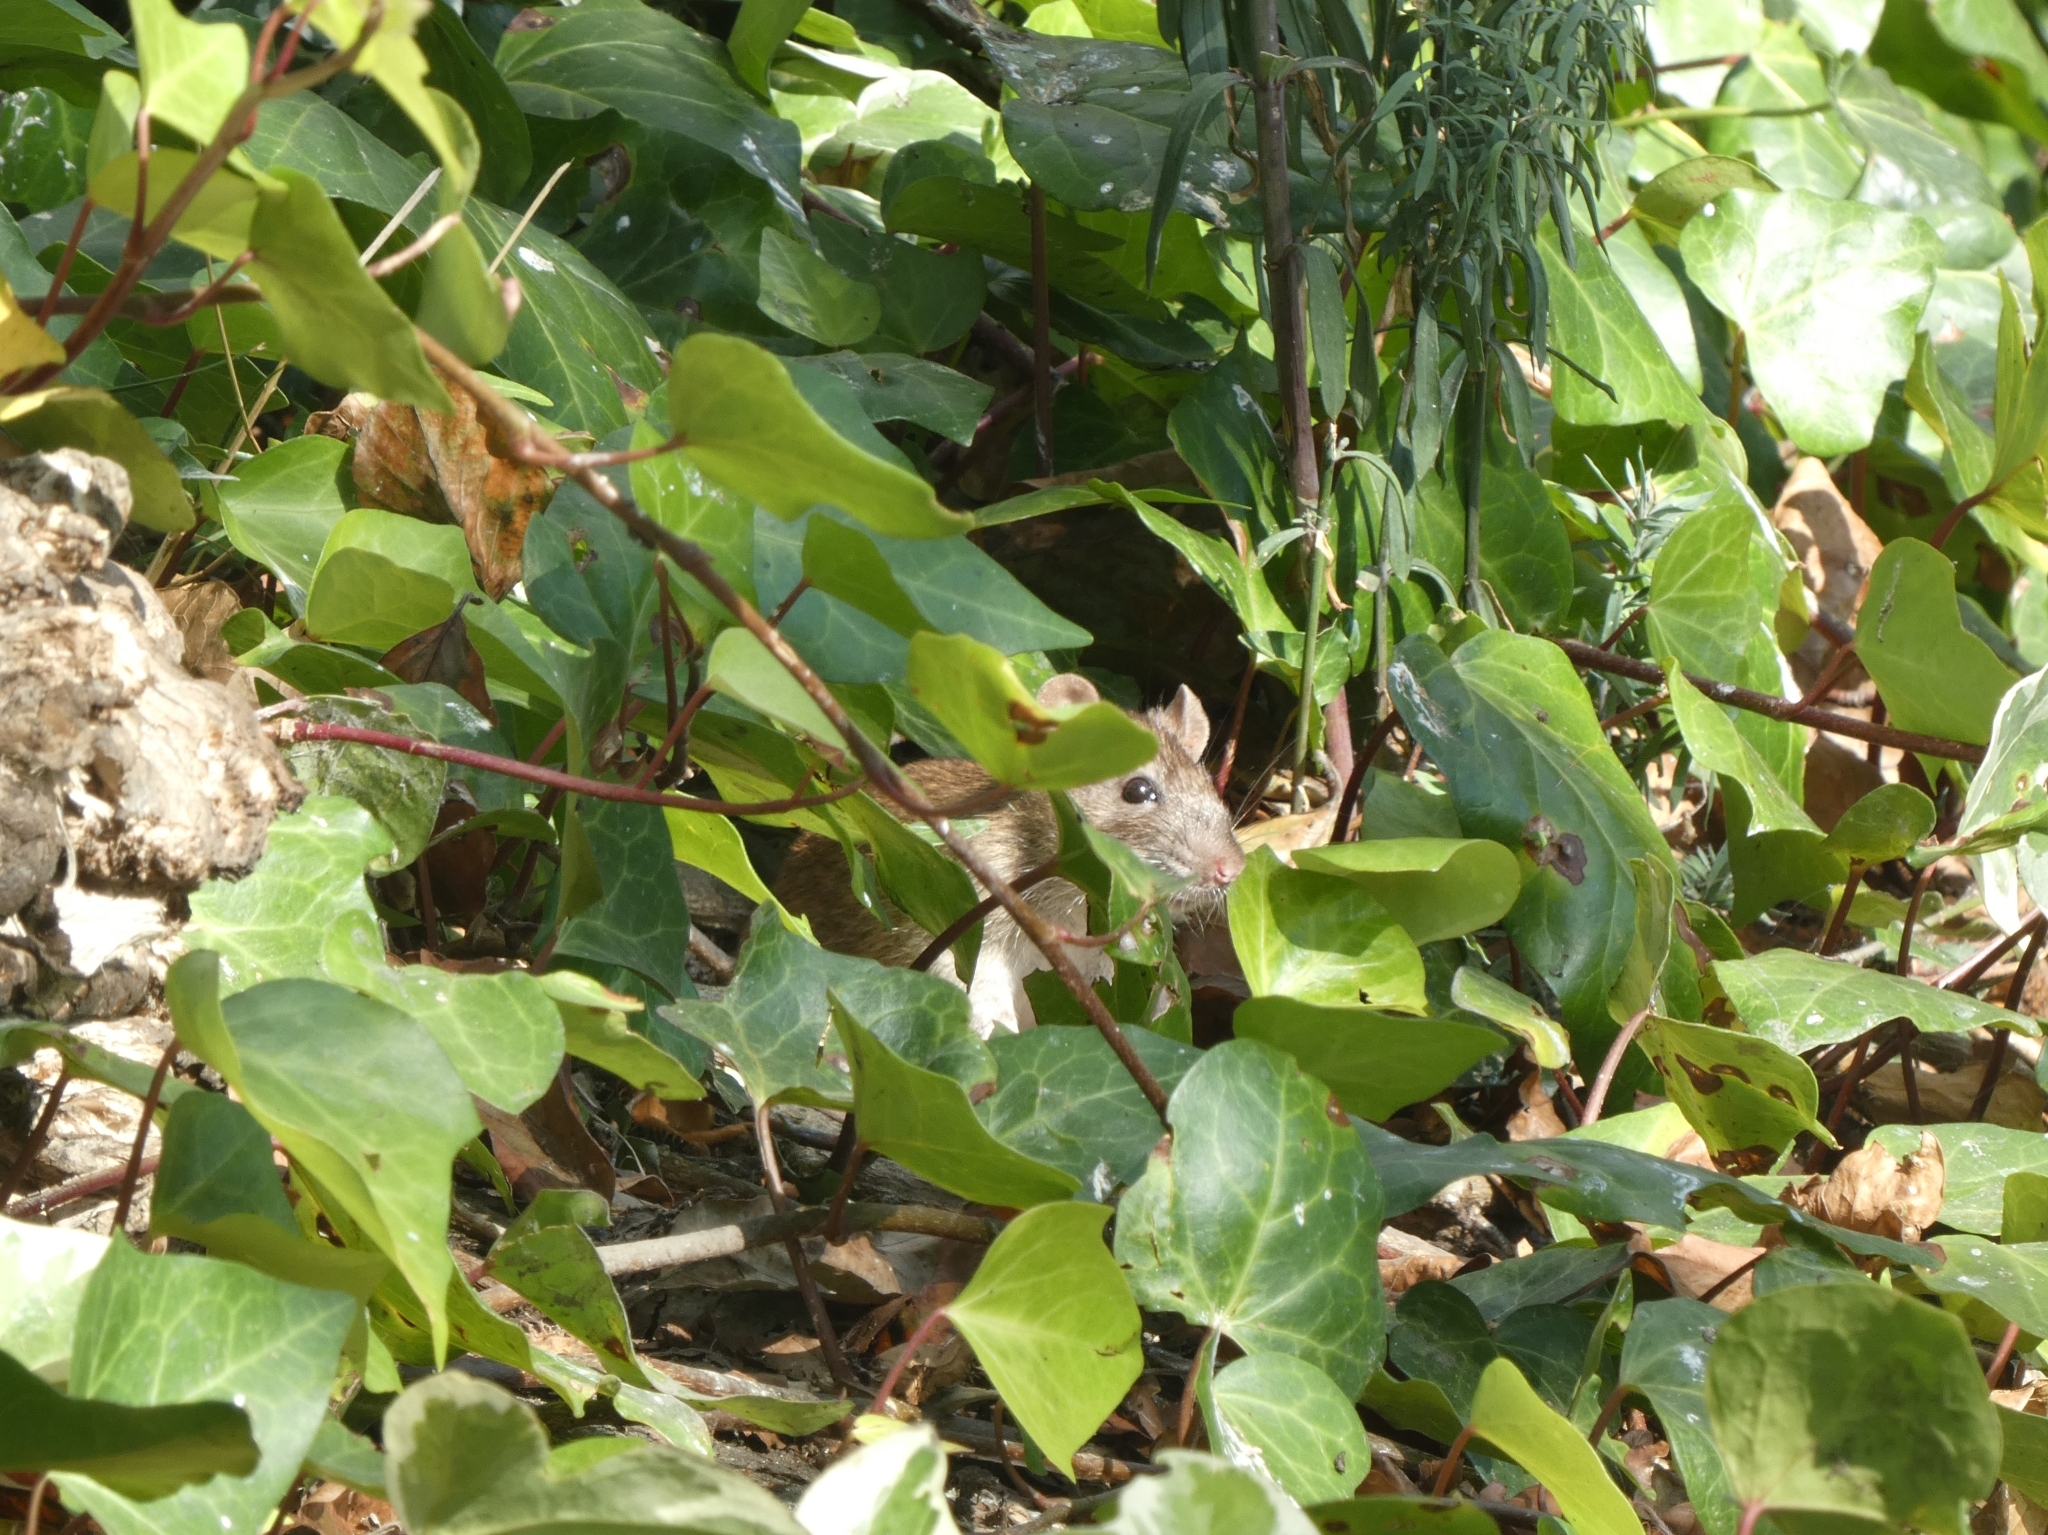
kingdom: Animalia
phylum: Chordata
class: Mammalia
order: Rodentia
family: Muridae
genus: Rattus
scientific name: Rattus norvegicus
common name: Brown rat
